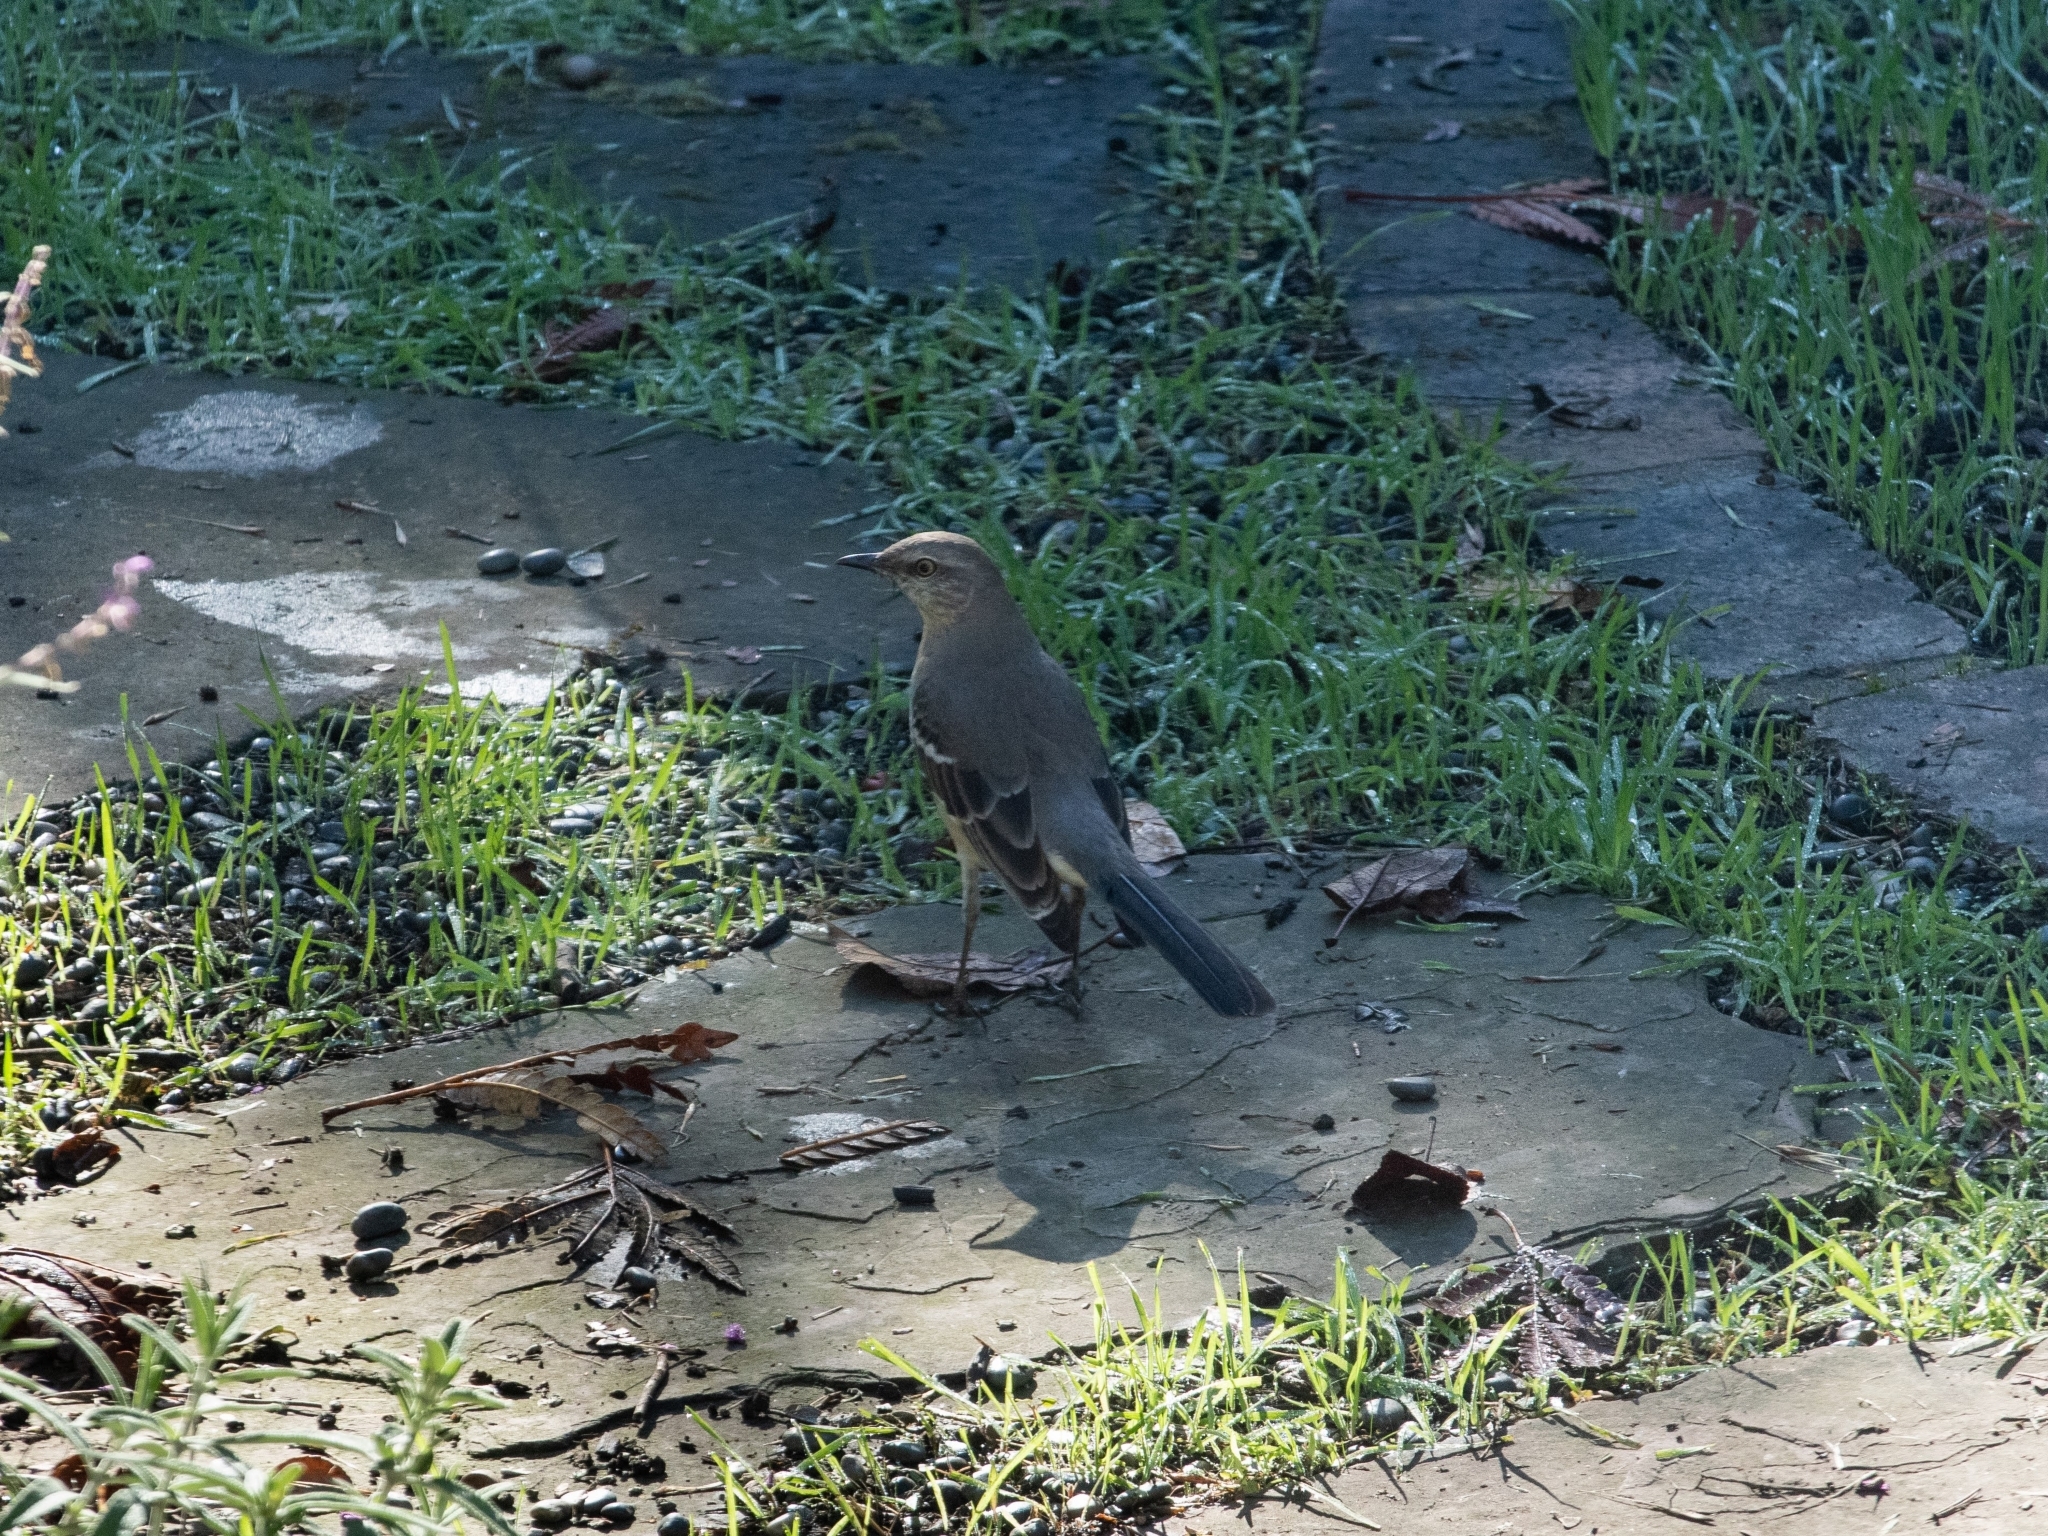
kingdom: Animalia
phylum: Chordata
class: Aves
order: Passeriformes
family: Mimidae
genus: Mimus
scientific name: Mimus polyglottos
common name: Northern mockingbird
